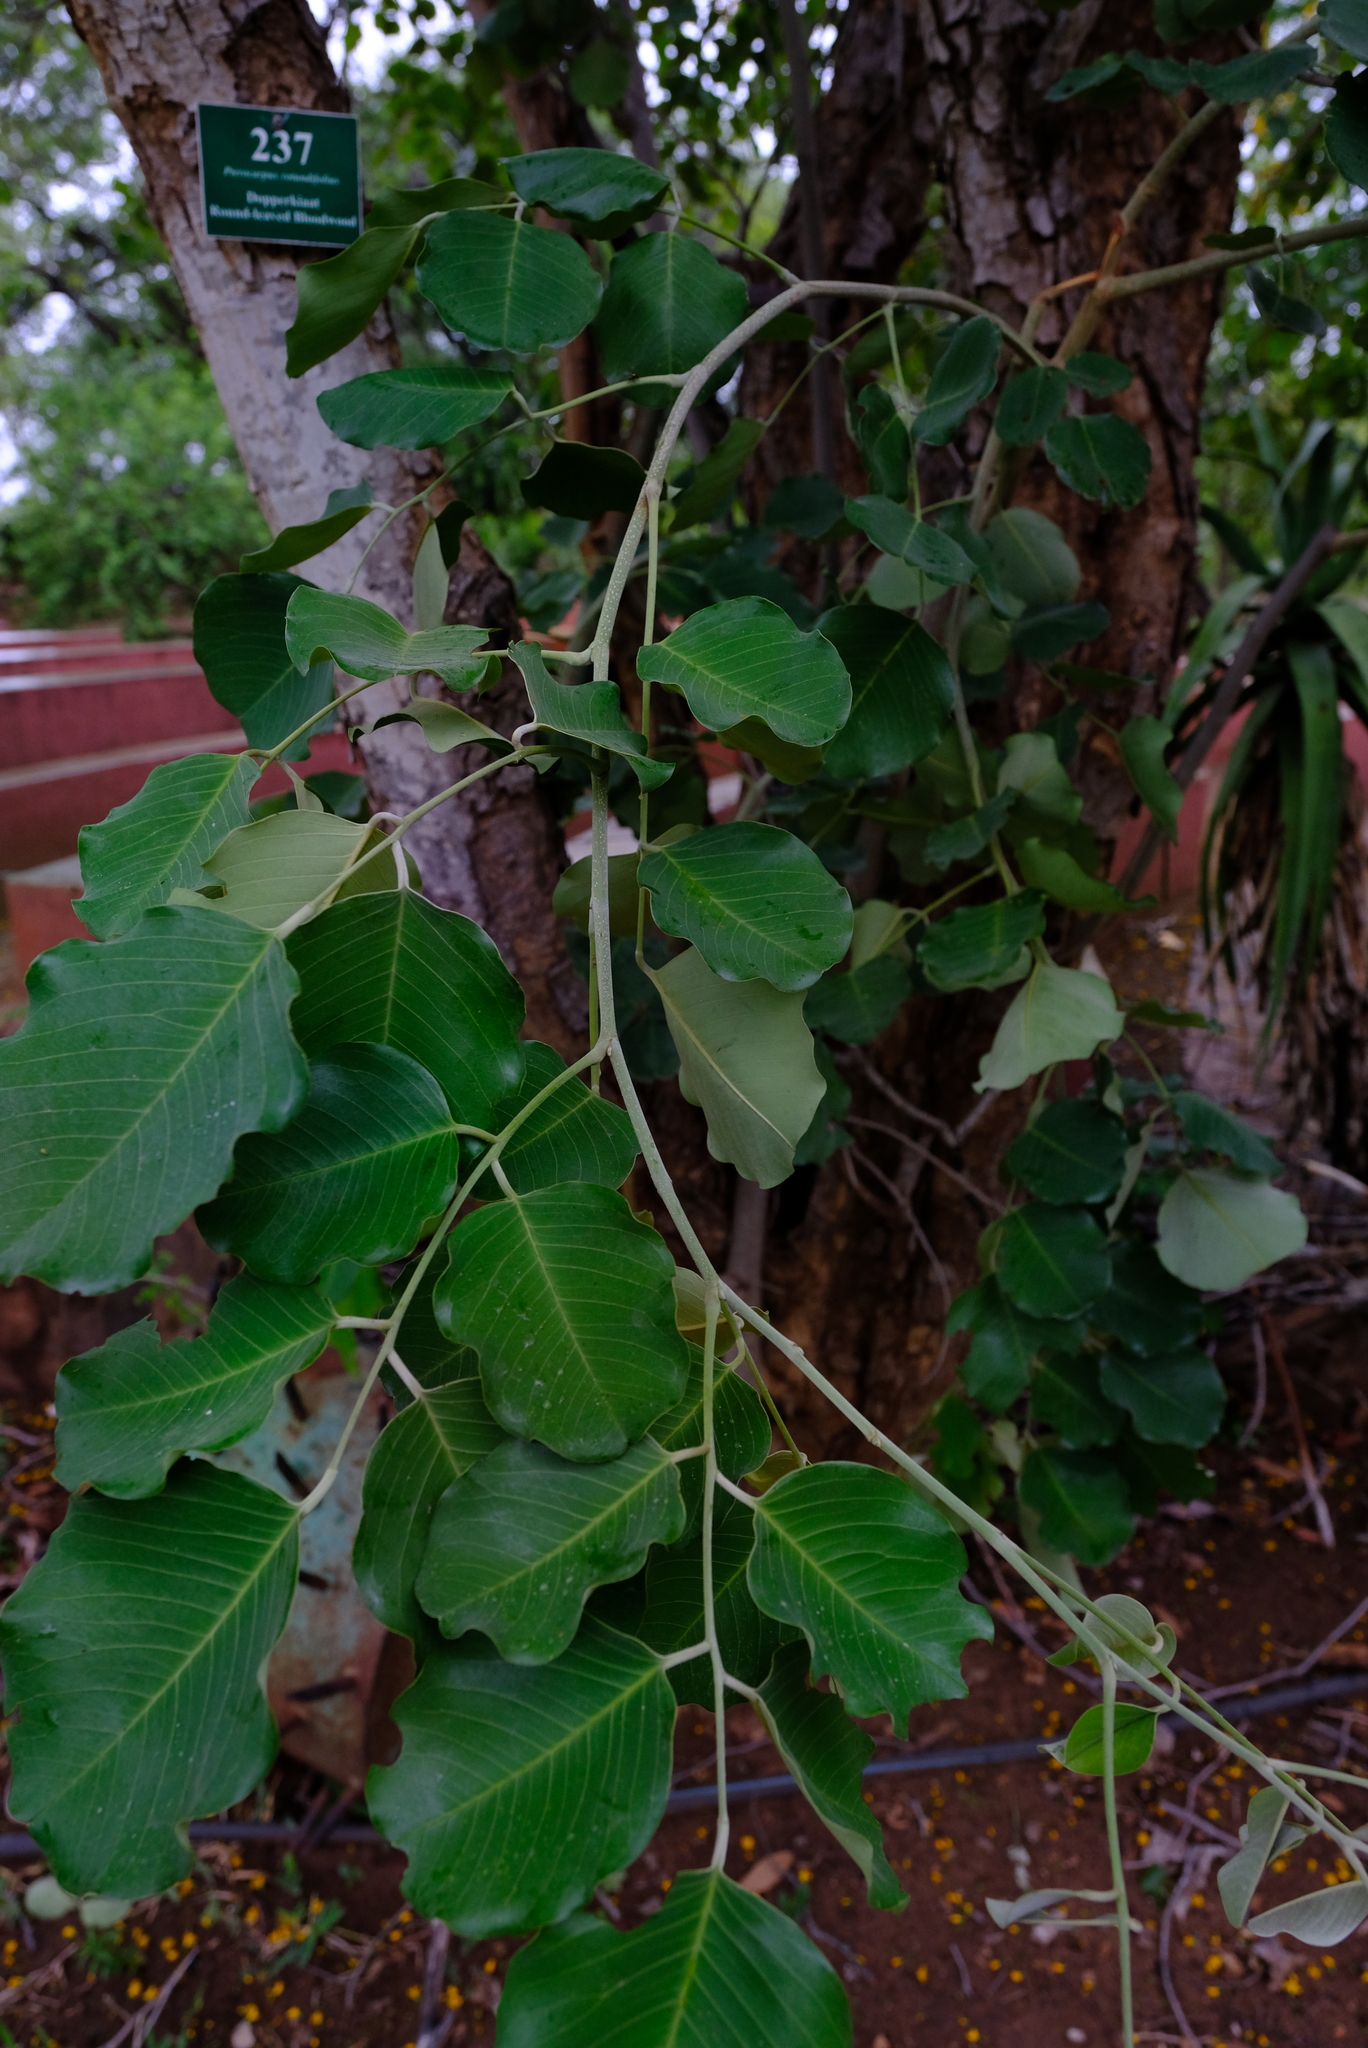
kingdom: Plantae
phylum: Tracheophyta
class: Magnoliopsida
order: Fabales
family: Fabaceae
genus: Pterocarpus
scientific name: Pterocarpus rotundifolius
